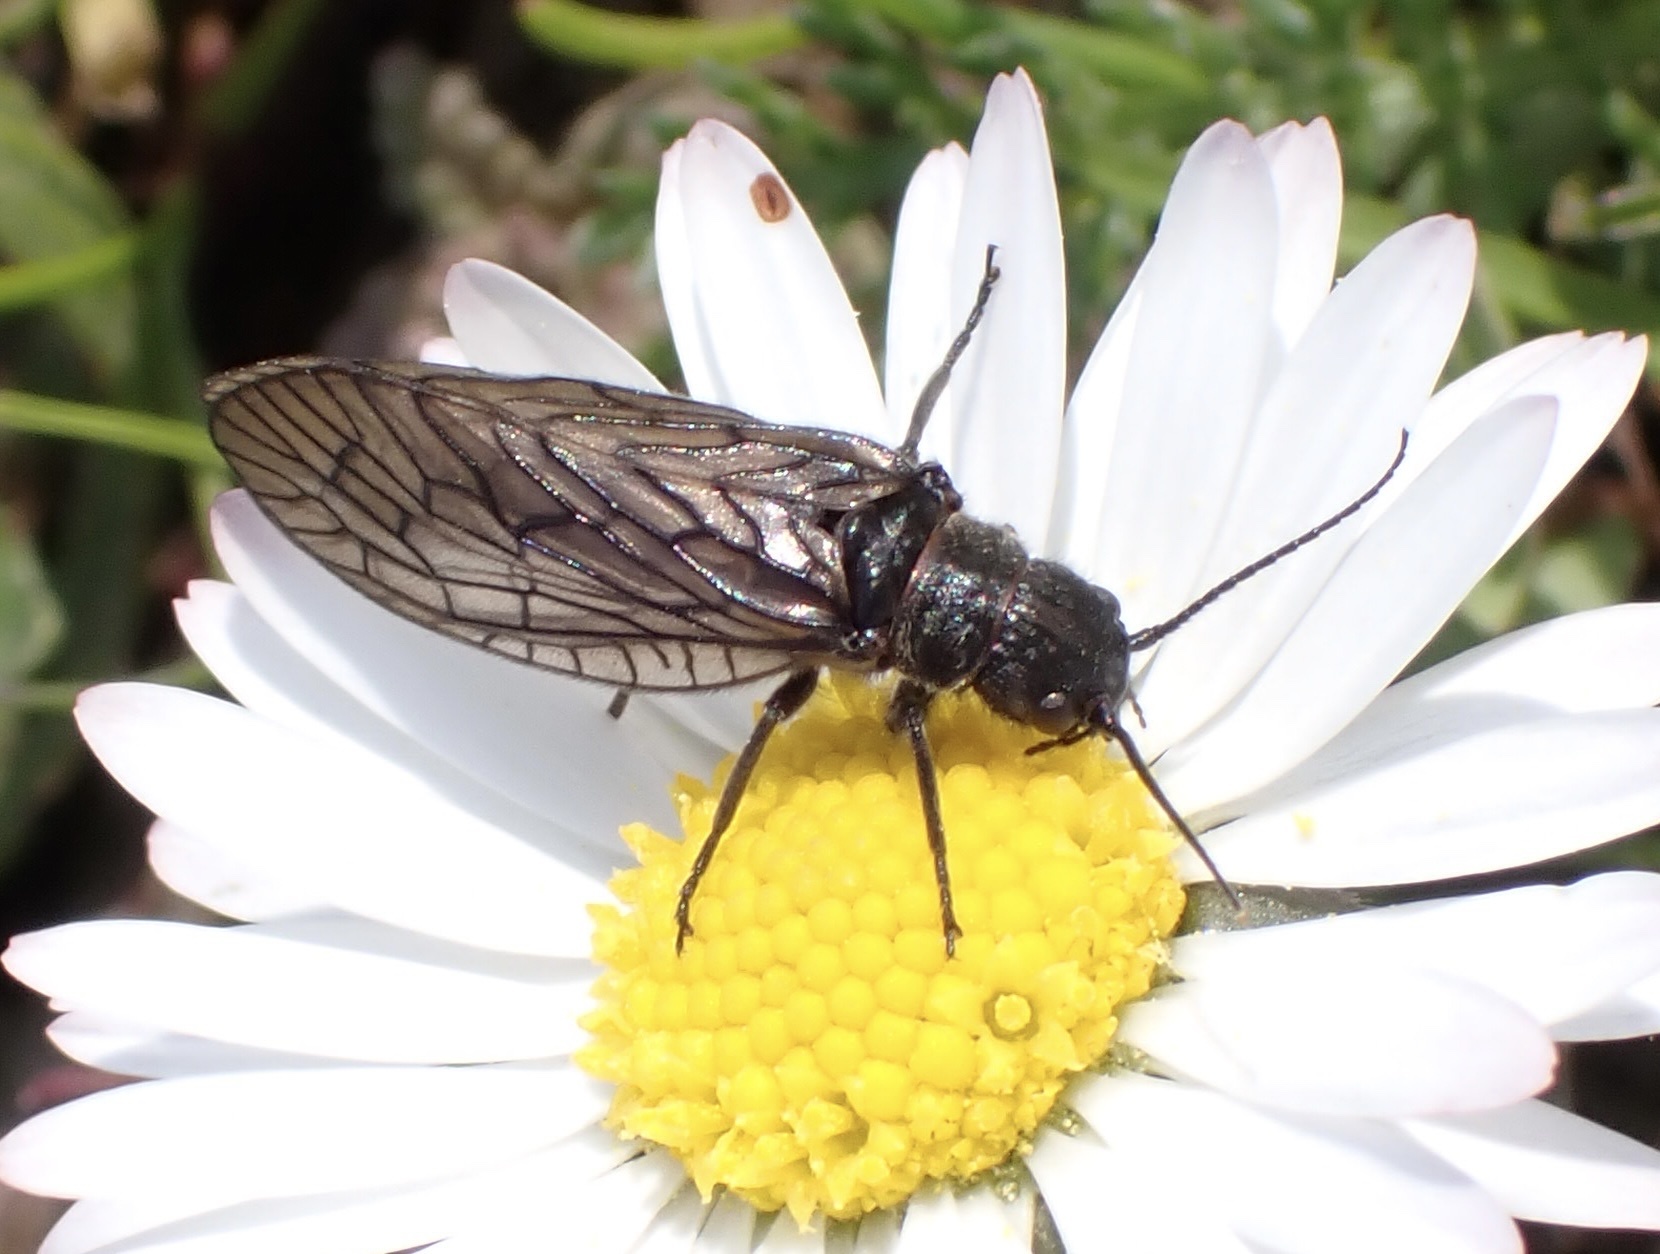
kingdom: Animalia
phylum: Arthropoda
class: Insecta
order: Megaloptera
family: Sialidae
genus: Sialis
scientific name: Sialis
